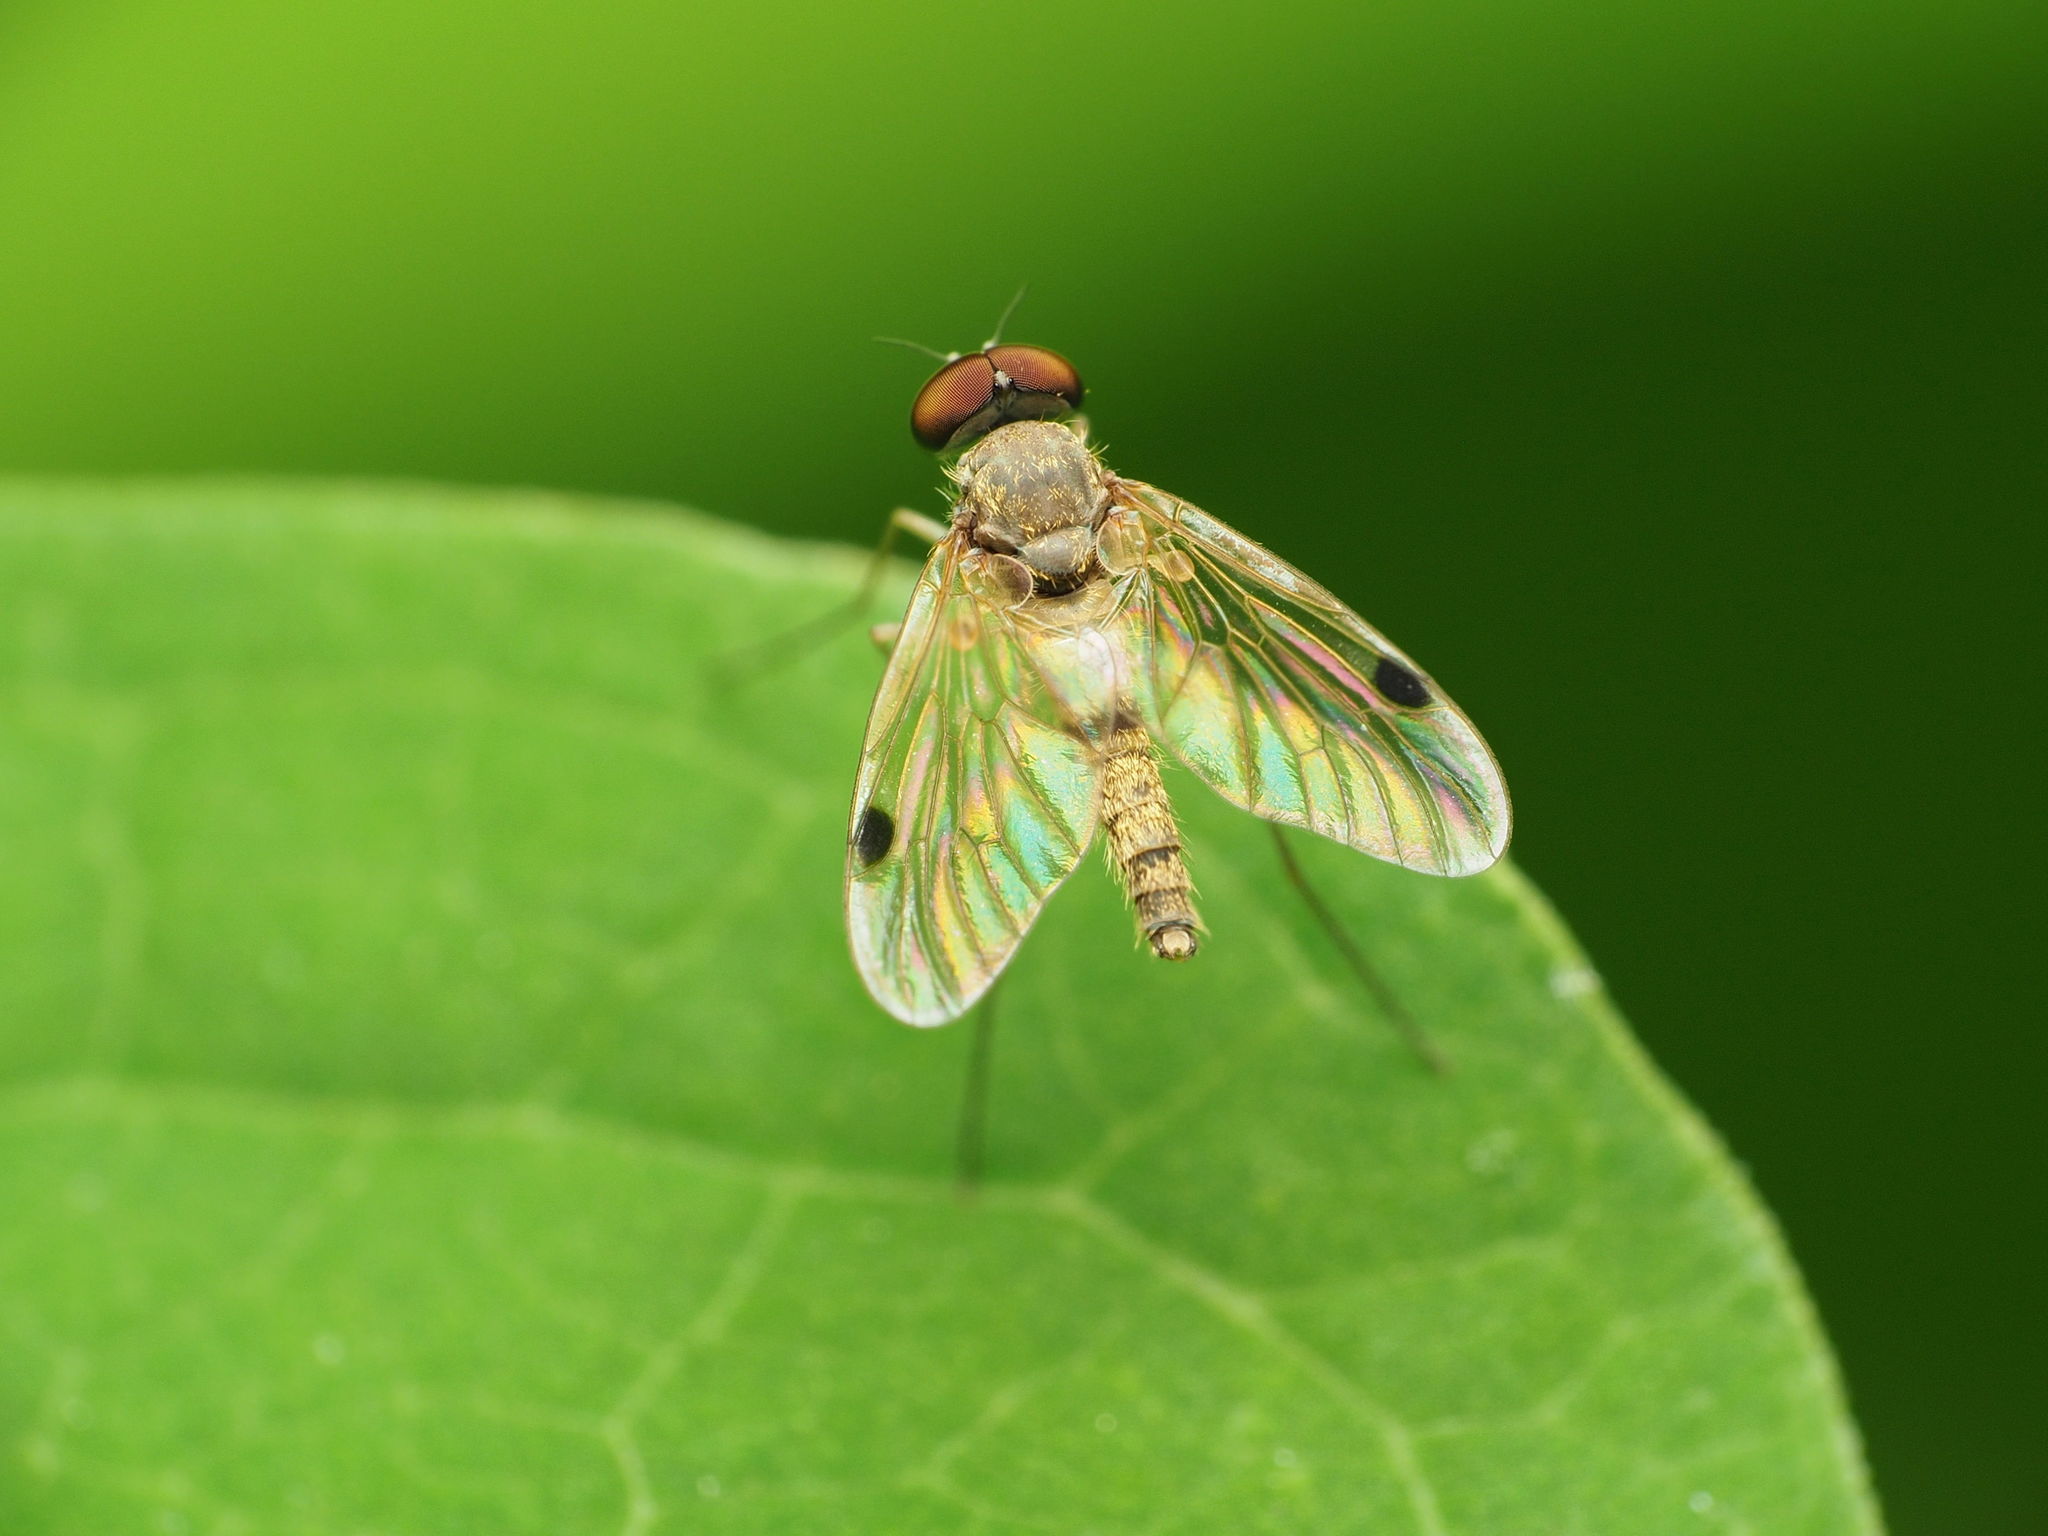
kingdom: Animalia
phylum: Arthropoda
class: Insecta
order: Diptera
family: Rhagionidae
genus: Chrysopilus
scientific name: Chrysopilus modestus
